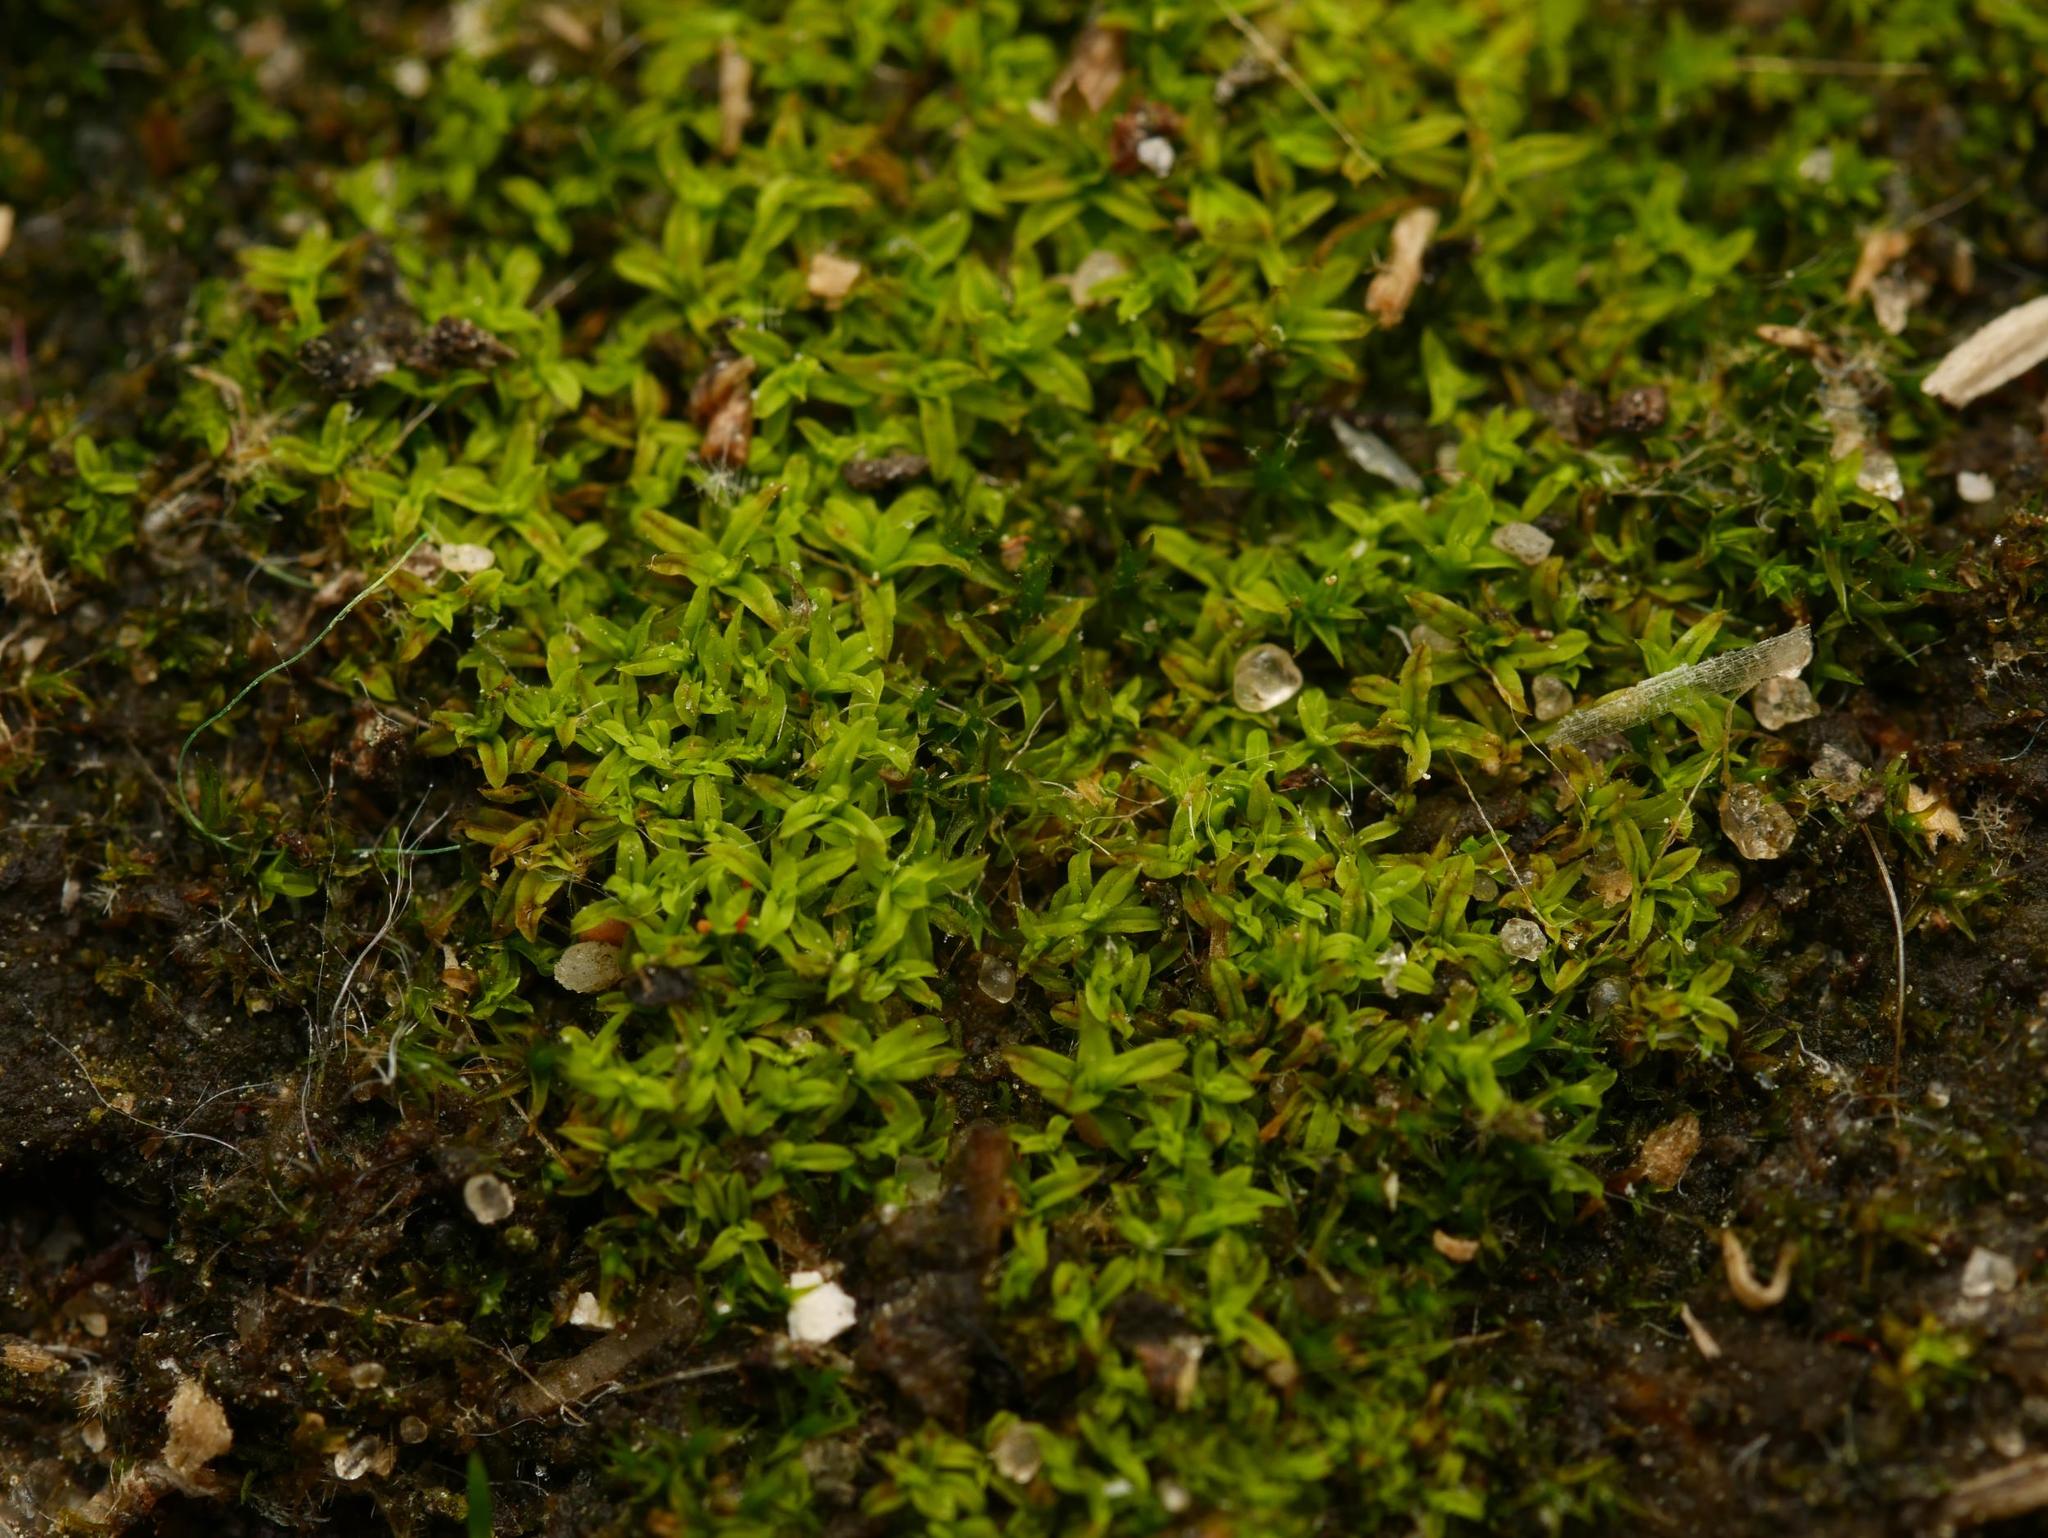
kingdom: Plantae
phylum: Bryophyta
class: Bryopsida
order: Pottiales
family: Pottiaceae
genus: Barbula
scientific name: Barbula unguiculata
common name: Prickly beard moss
